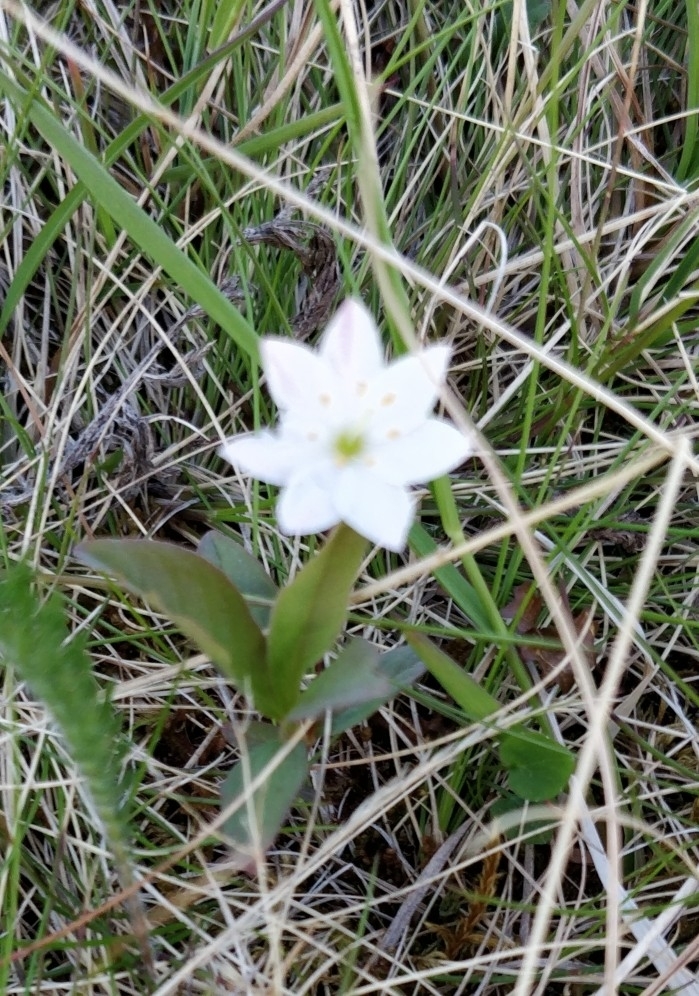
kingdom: Plantae
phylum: Tracheophyta
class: Magnoliopsida
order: Ericales
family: Primulaceae
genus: Lysimachia
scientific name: Lysimachia europaea
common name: Arctic starflower
